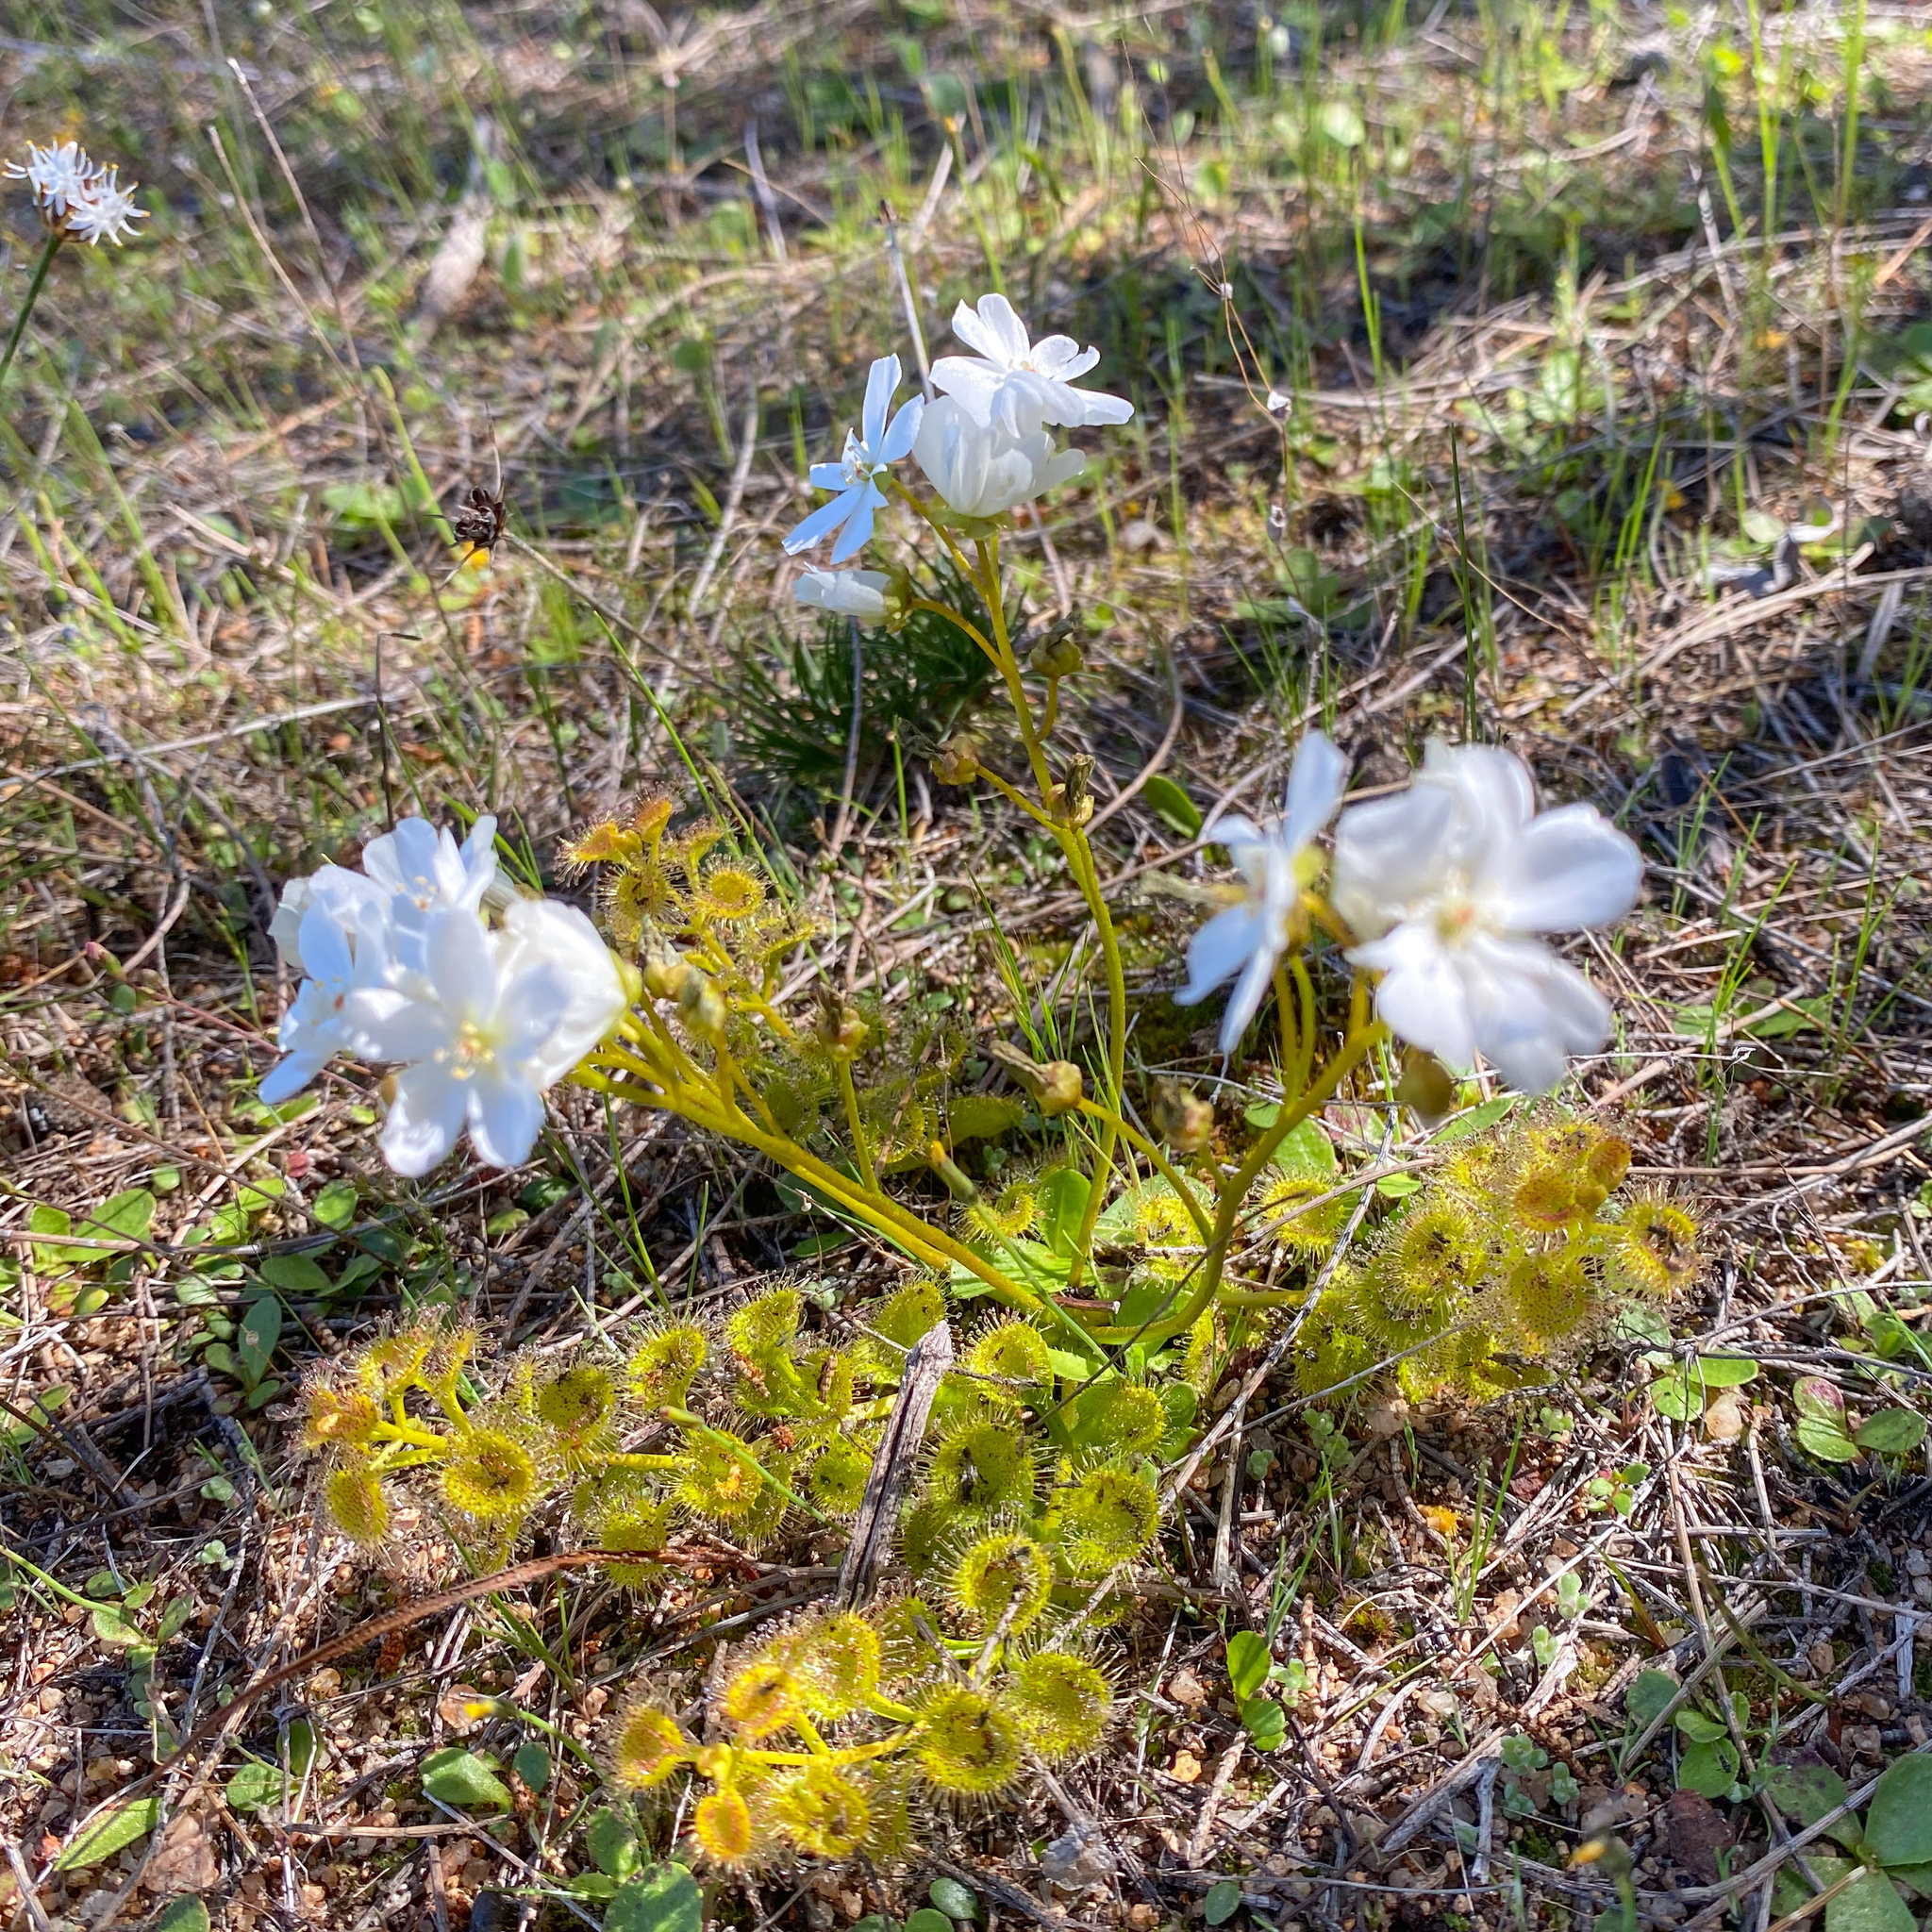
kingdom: Plantae
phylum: Tracheophyta
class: Magnoliopsida
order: Caryophyllales
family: Droseraceae
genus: Drosera
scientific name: Drosera rupicola
